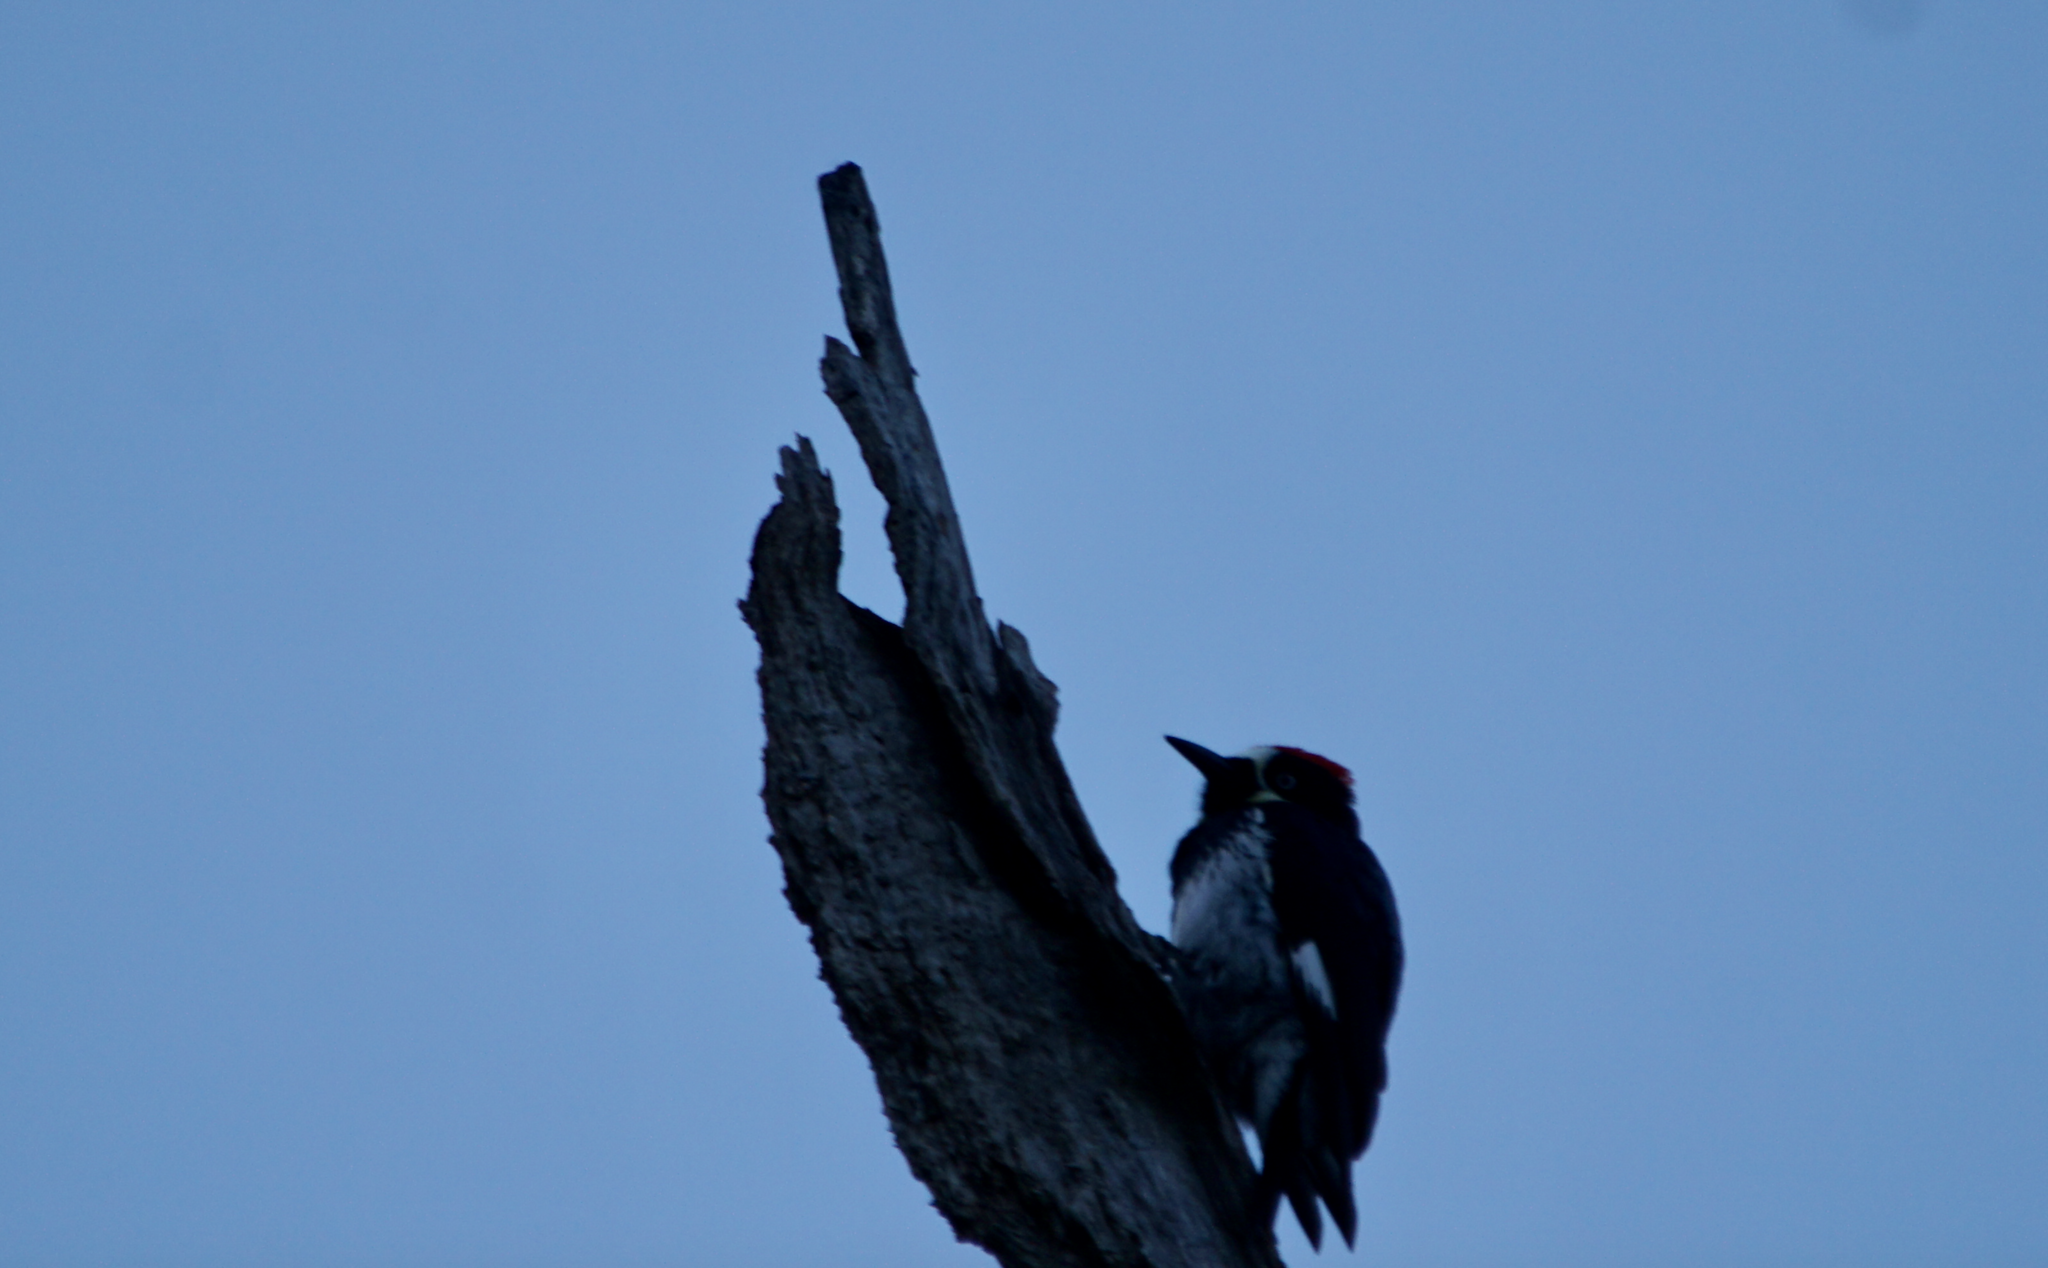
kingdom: Animalia
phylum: Chordata
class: Aves
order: Piciformes
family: Picidae
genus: Melanerpes
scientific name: Melanerpes formicivorus
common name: Acorn woodpecker
